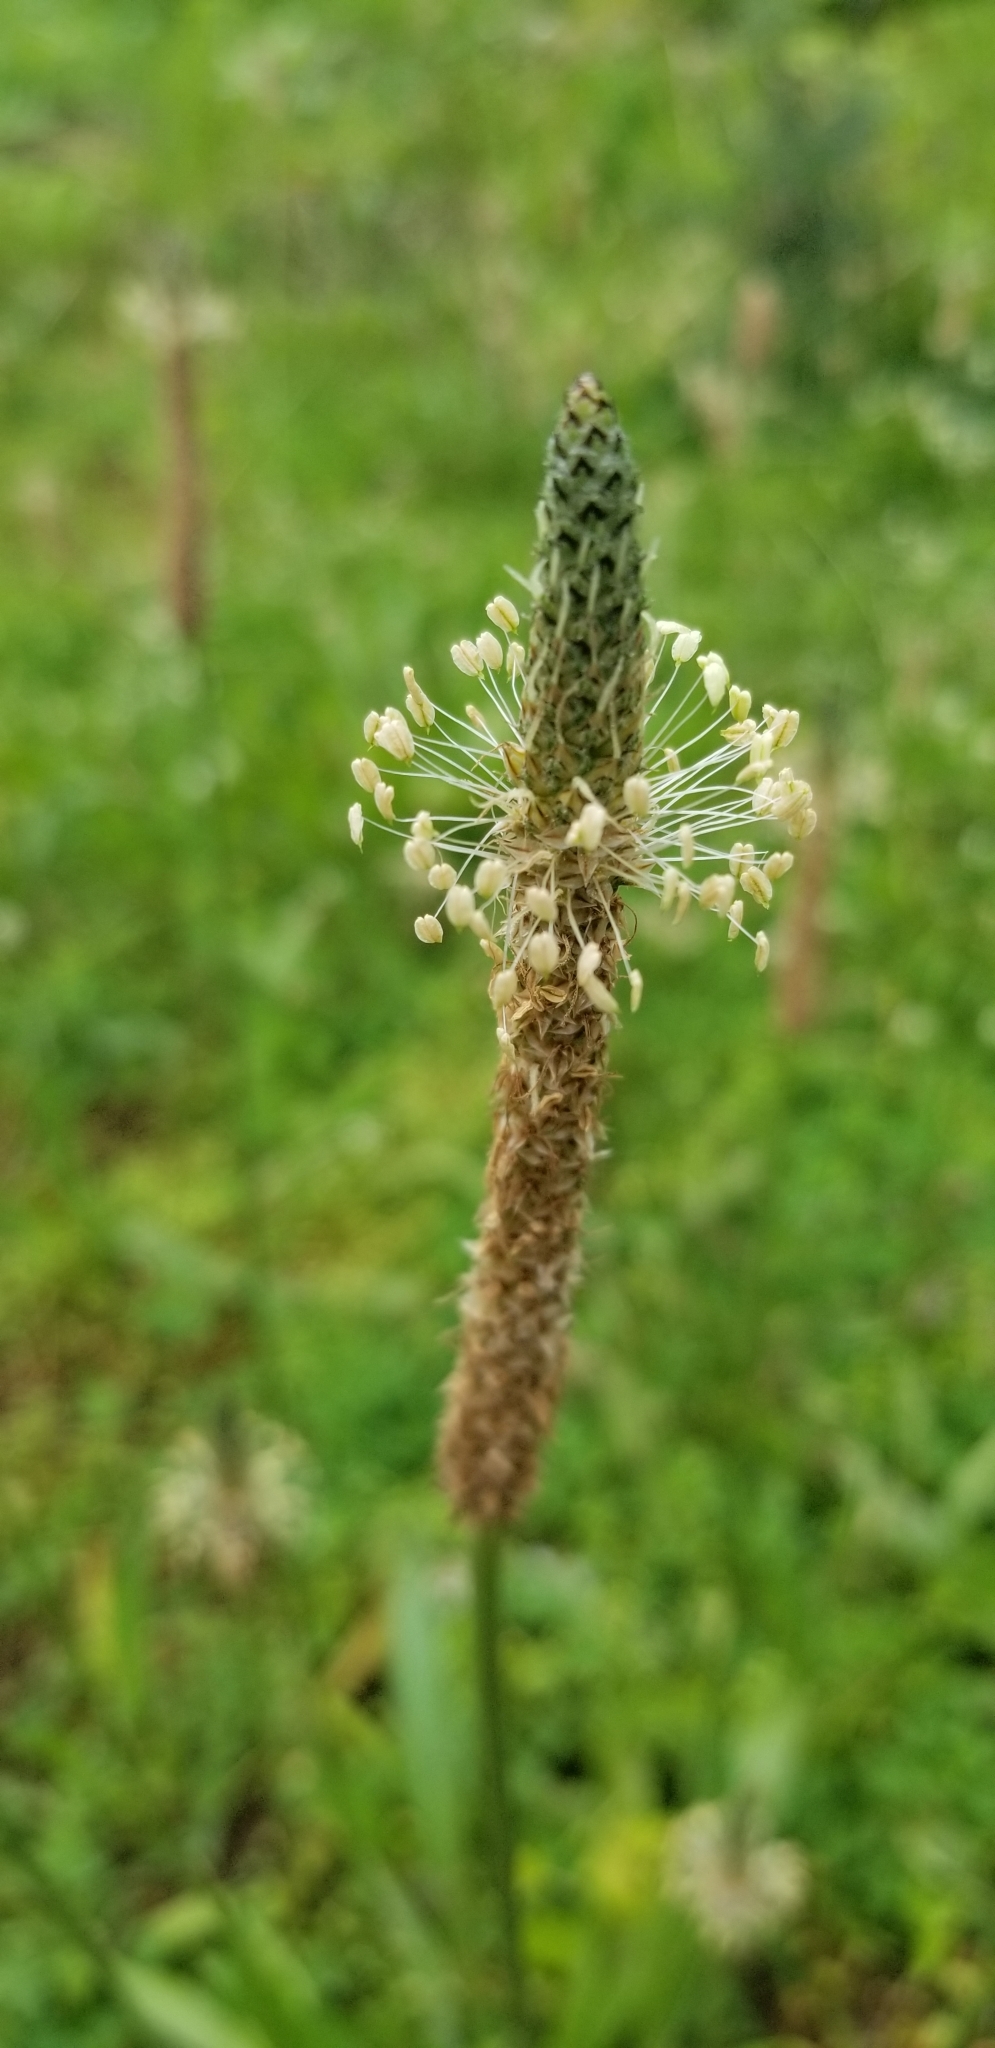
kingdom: Plantae
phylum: Tracheophyta
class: Magnoliopsida
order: Lamiales
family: Plantaginaceae
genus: Plantago
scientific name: Plantago lanceolata
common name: Ribwort plantain
